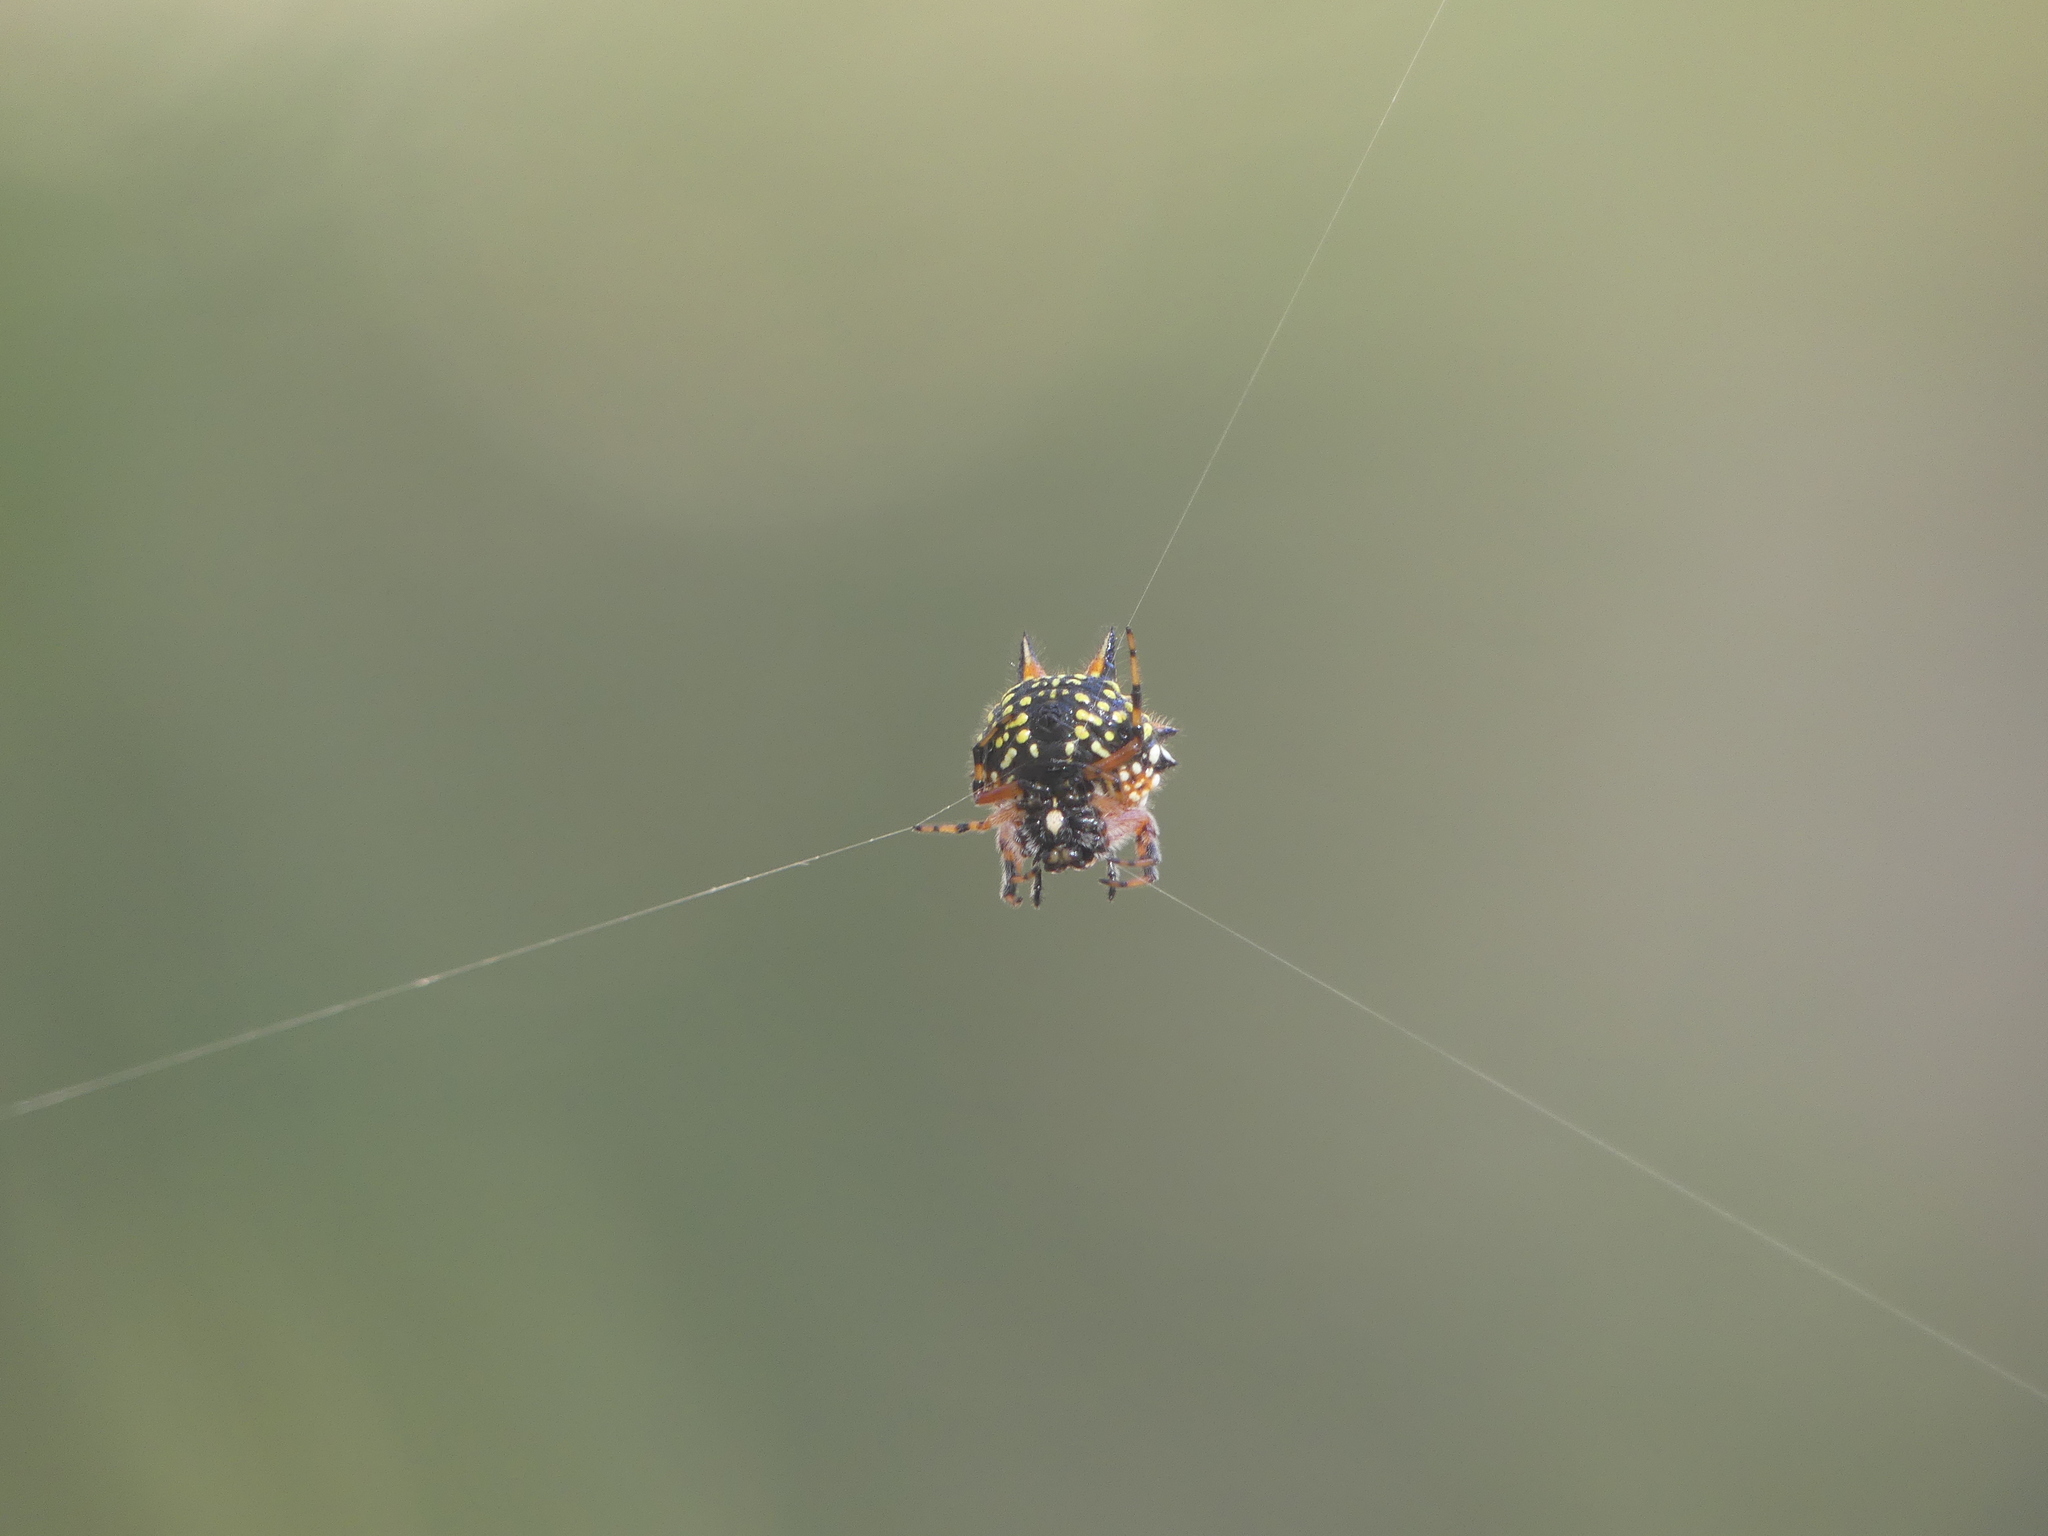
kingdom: Animalia
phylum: Arthropoda
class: Arachnida
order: Araneae
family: Araneidae
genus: Austracantha
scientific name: Austracantha minax
